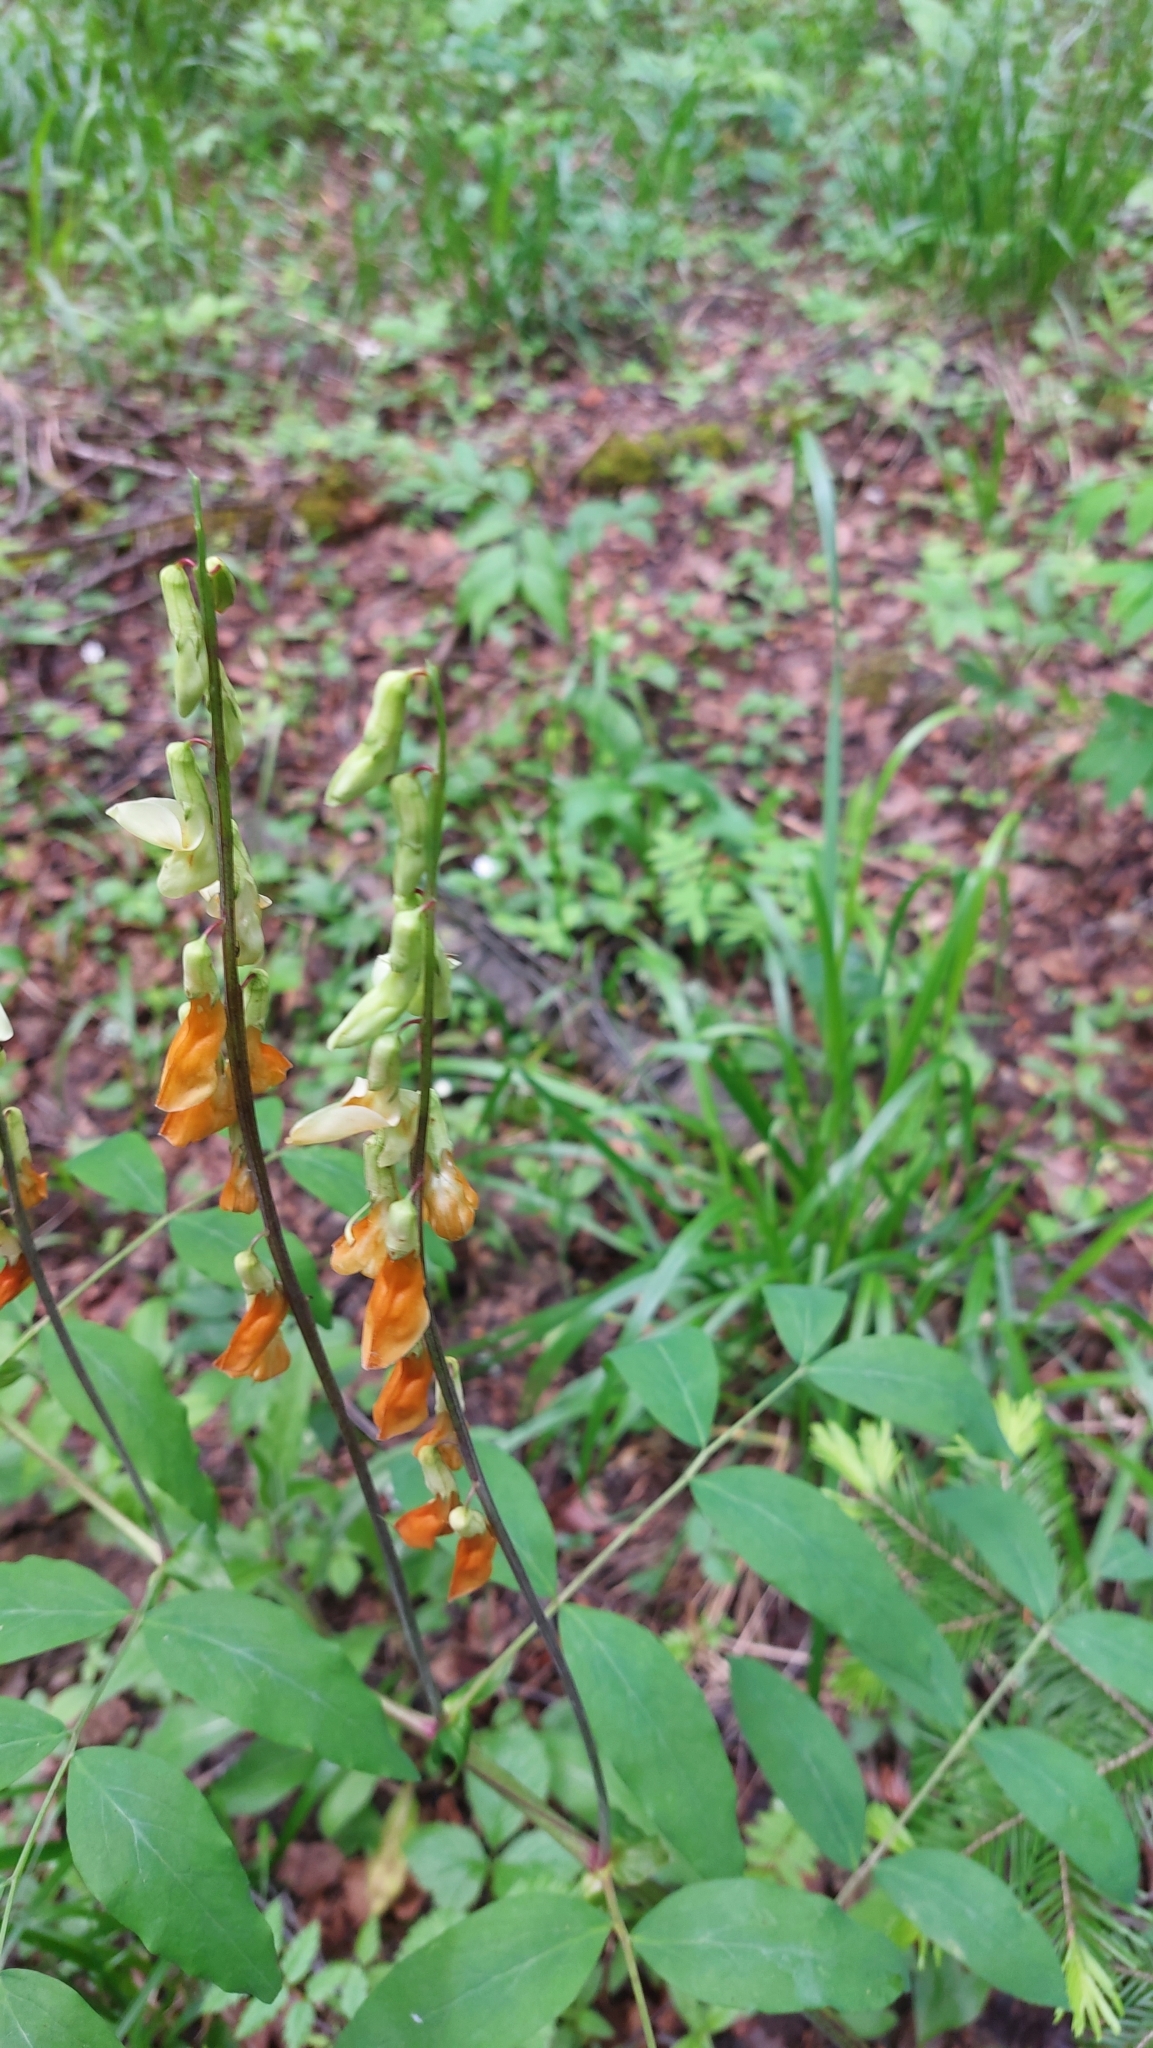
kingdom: Plantae
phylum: Tracheophyta
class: Magnoliopsida
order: Fabales
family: Fabaceae
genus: Lathyrus
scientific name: Lathyrus gmelinii
